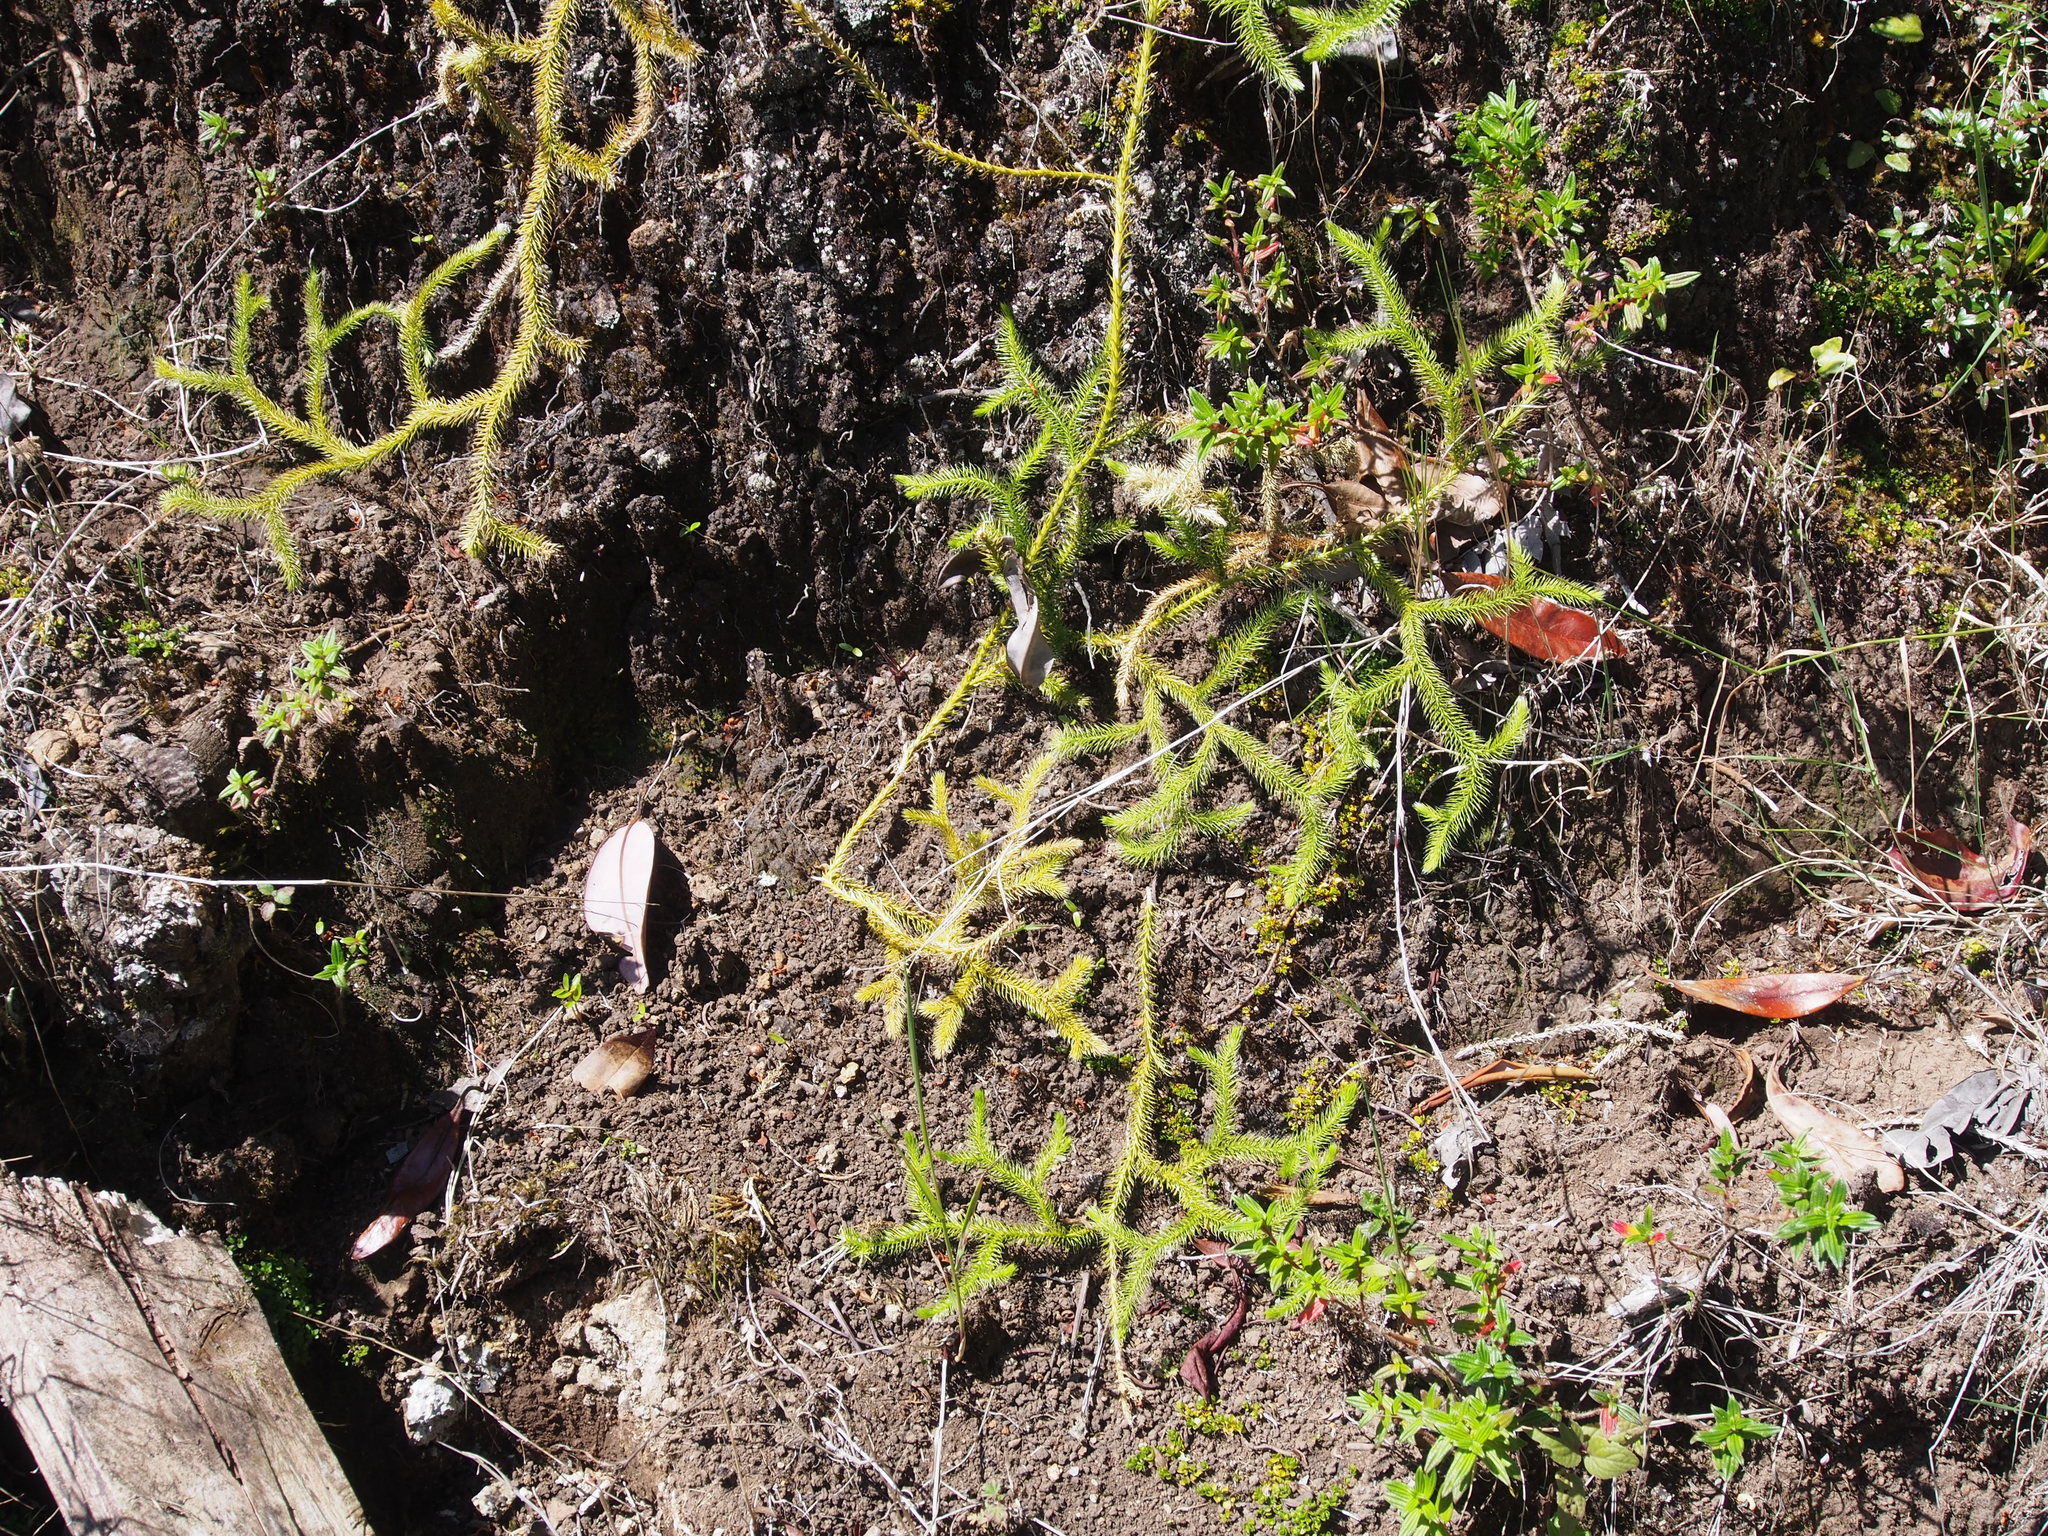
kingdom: Plantae
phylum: Tracheophyta
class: Lycopodiopsida
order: Lycopodiales
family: Lycopodiaceae
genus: Lycopodium
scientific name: Lycopodium clavatum
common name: Stag's-horn clubmoss
